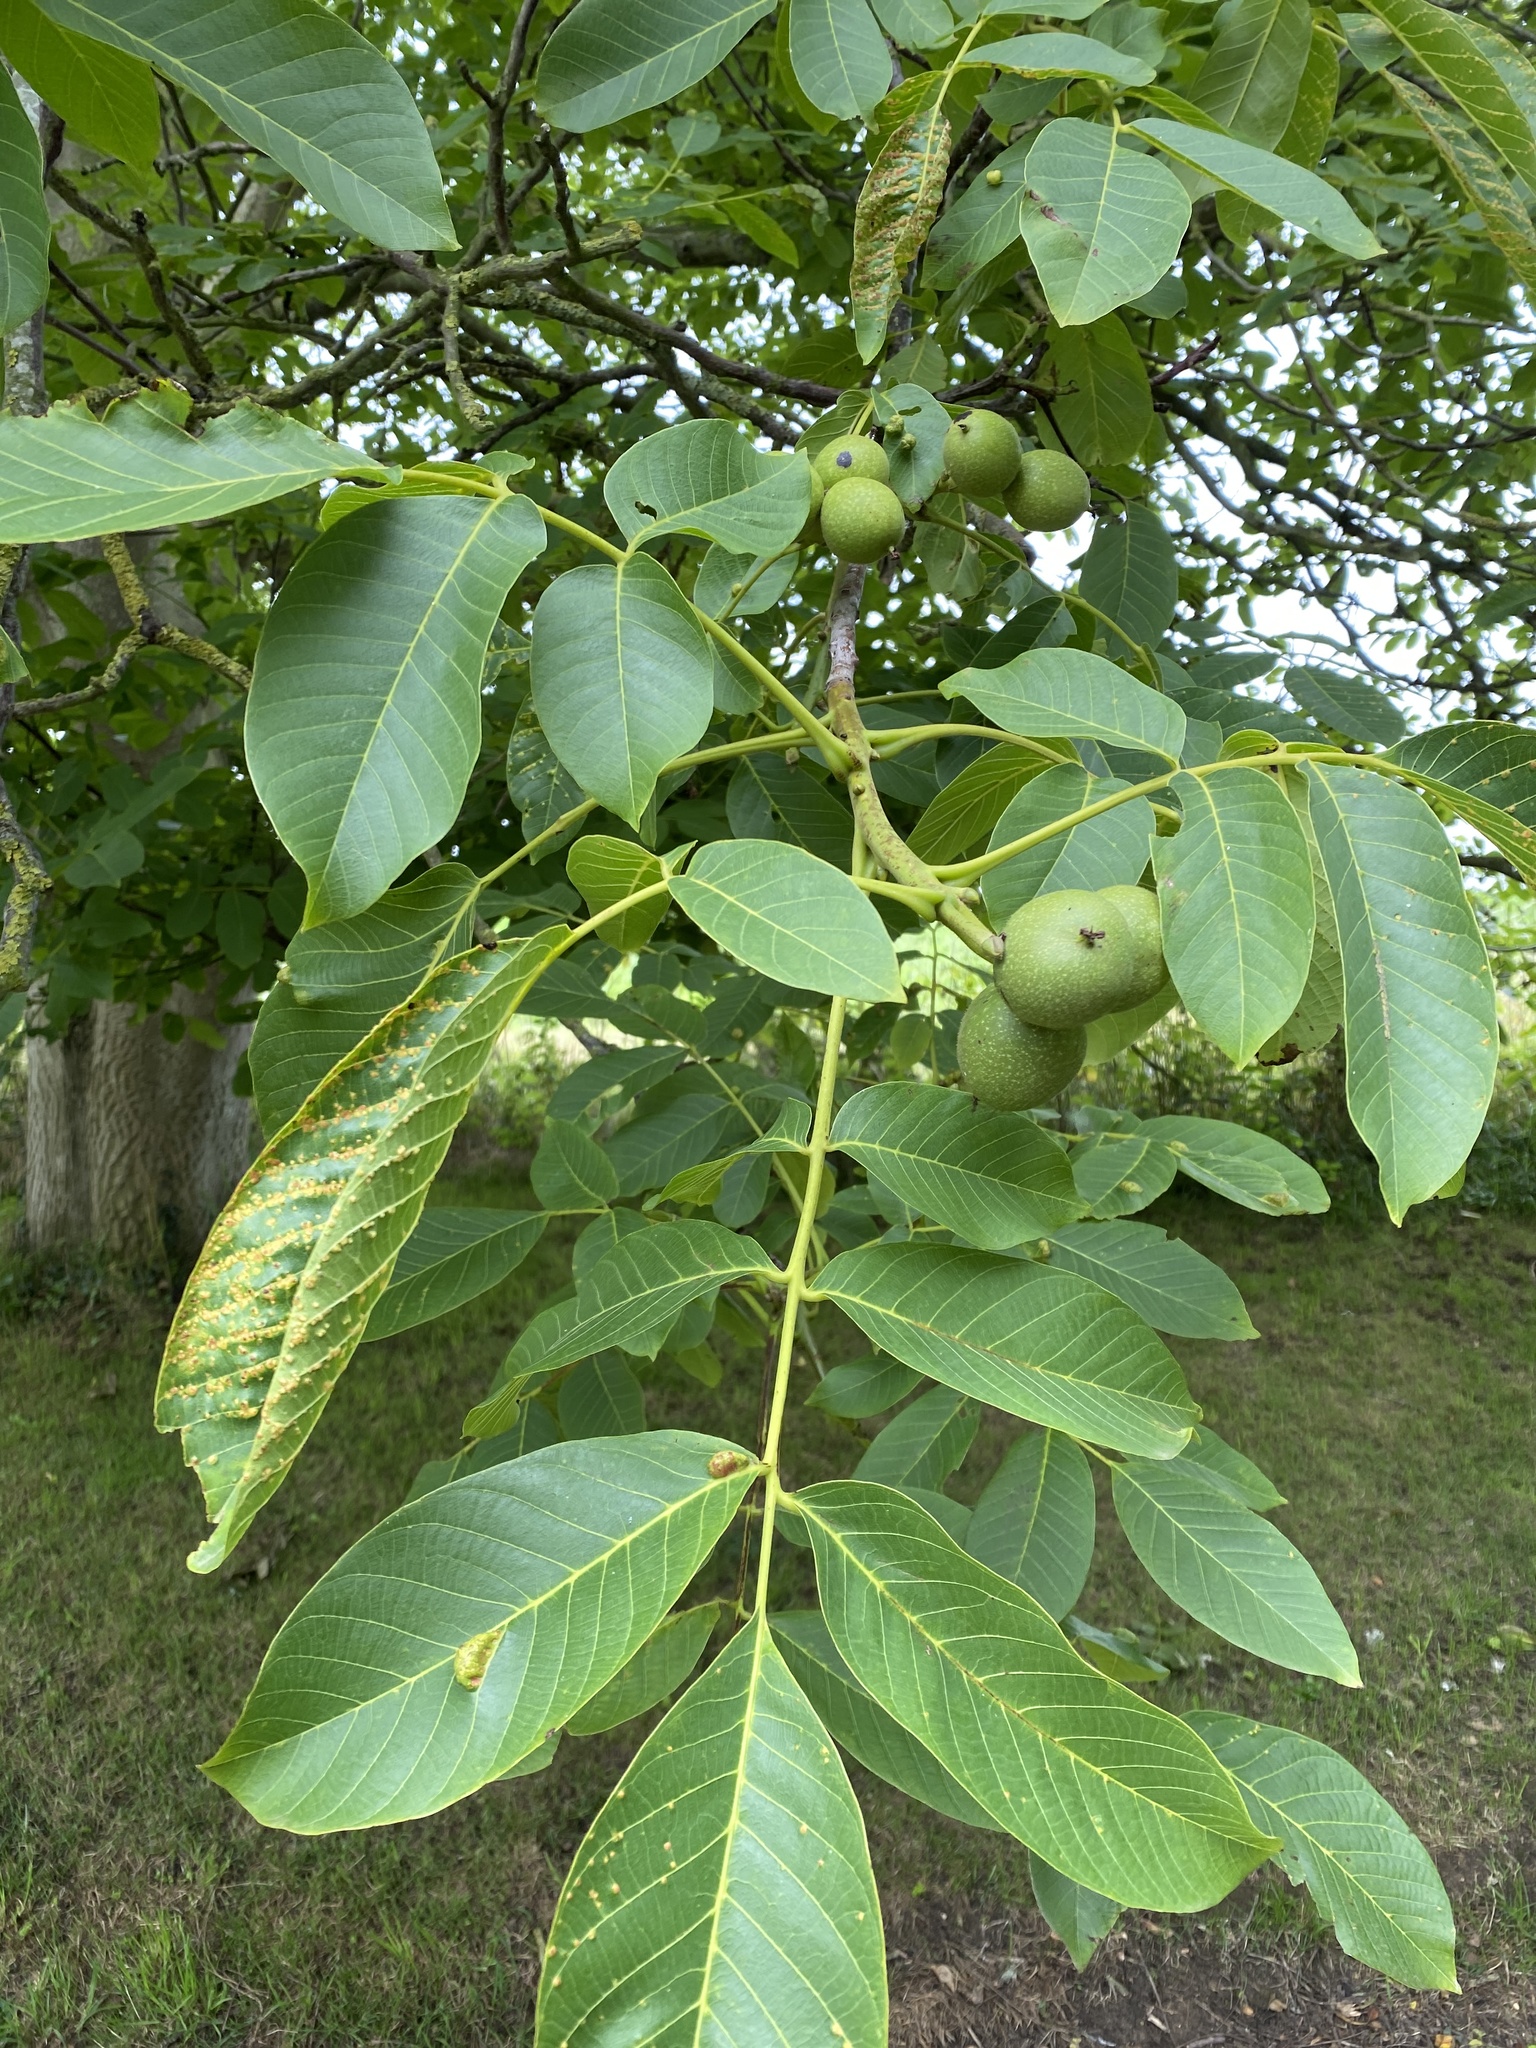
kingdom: Plantae
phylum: Tracheophyta
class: Magnoliopsida
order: Fagales
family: Juglandaceae
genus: Juglans
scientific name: Juglans regia
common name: Walnut
